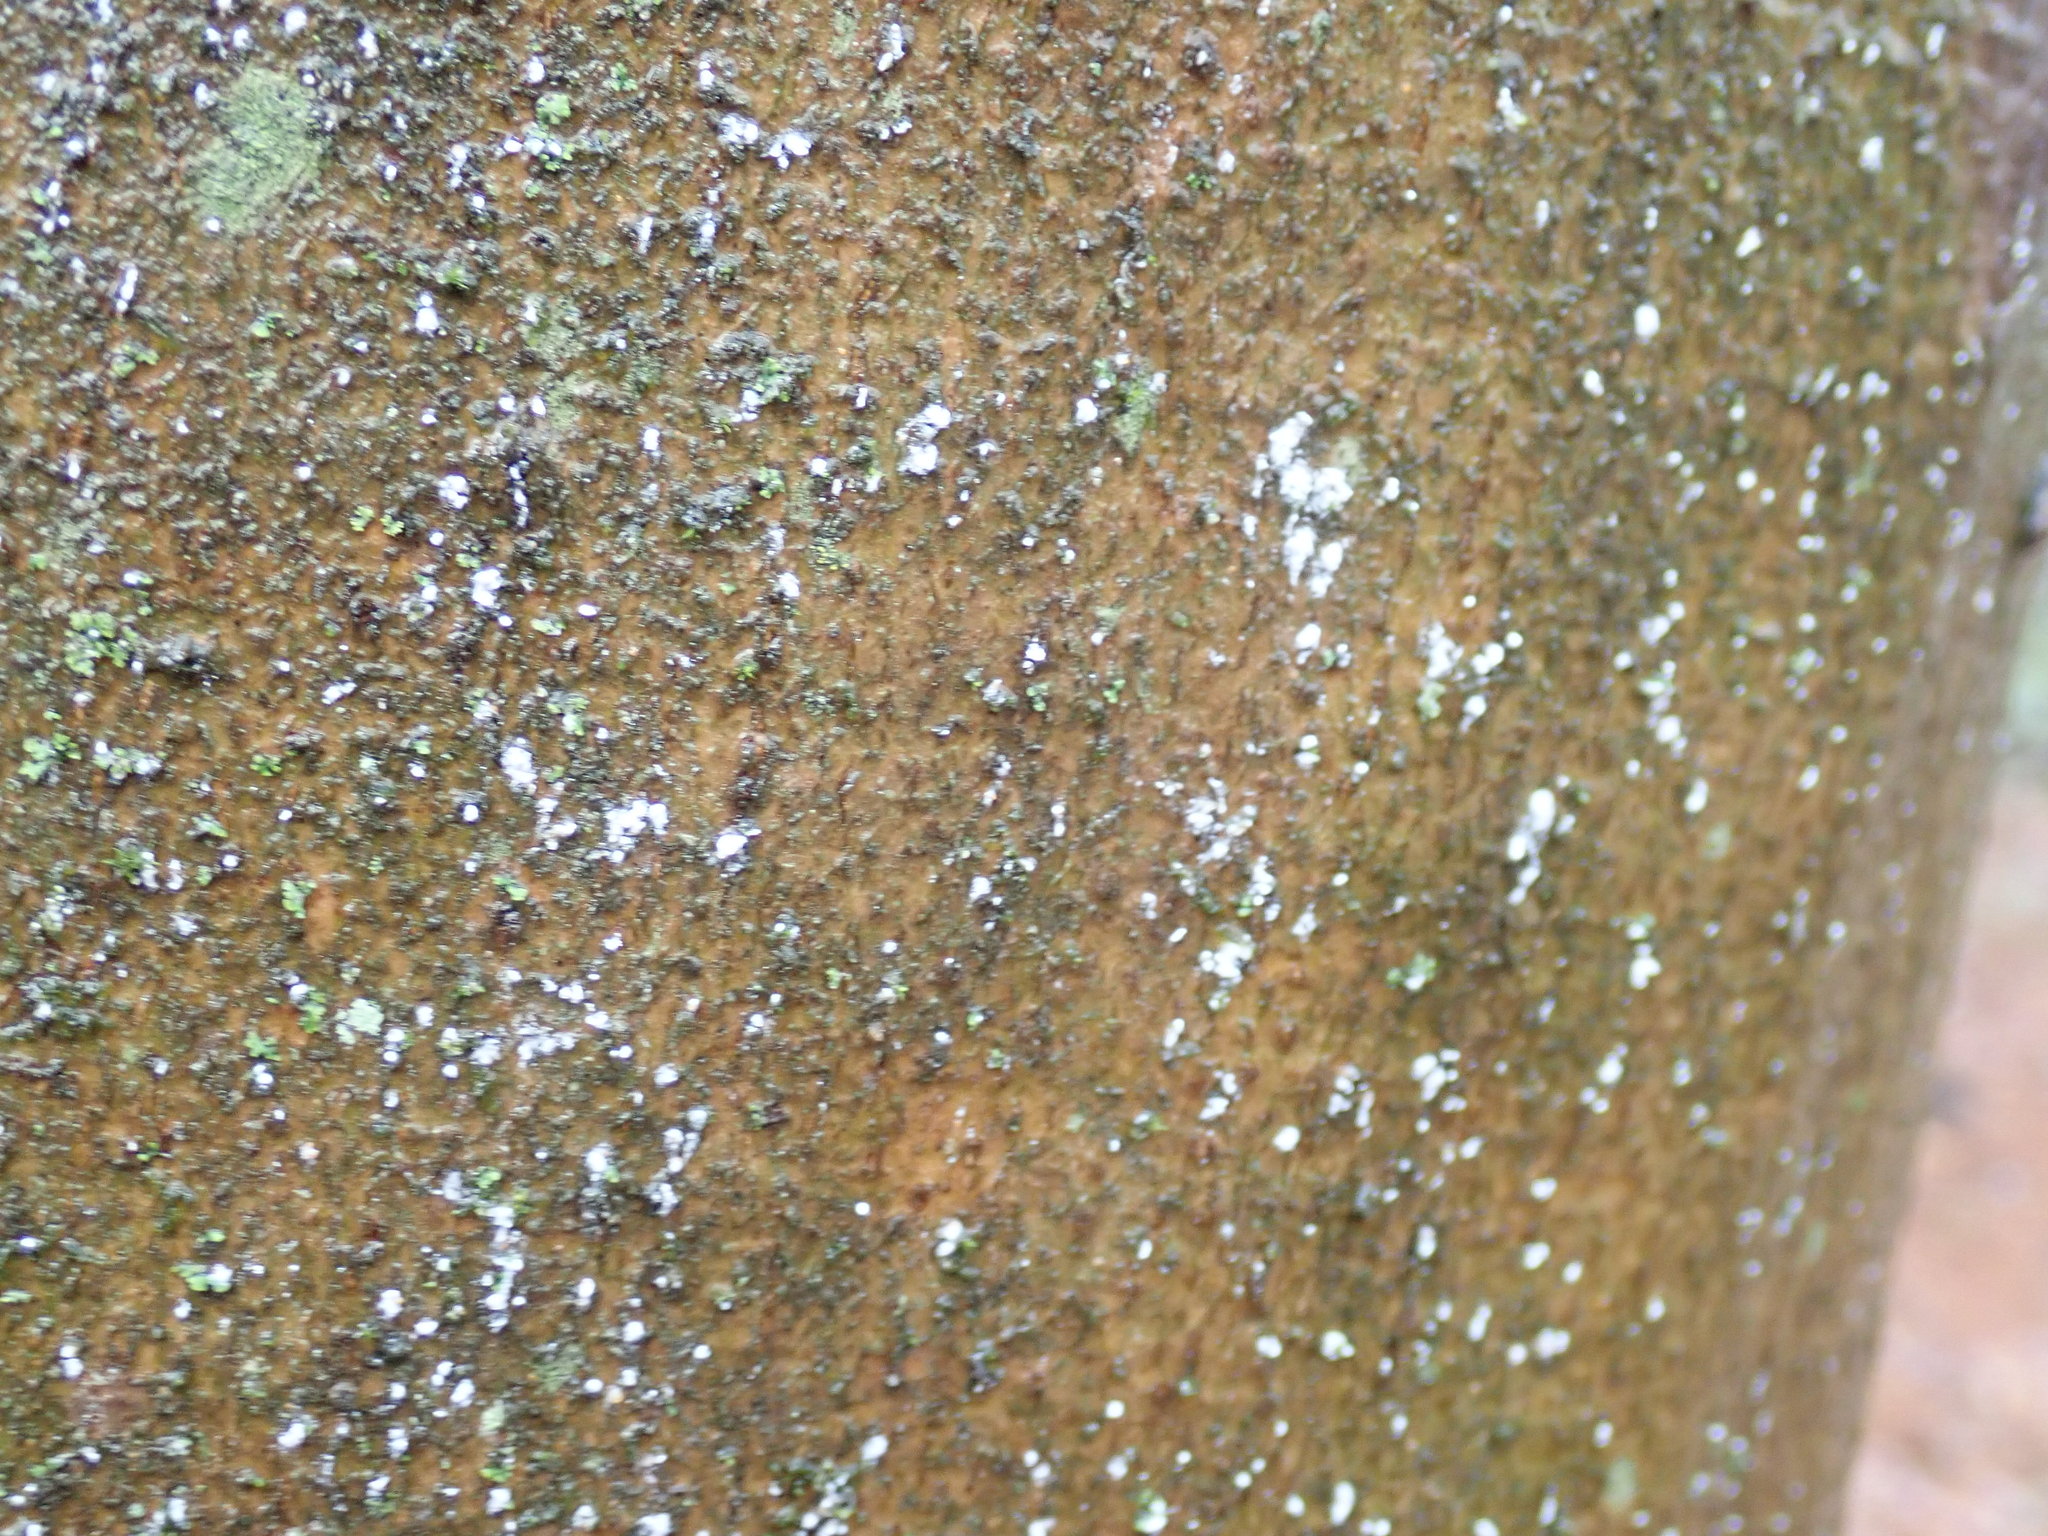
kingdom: Animalia
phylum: Arthropoda
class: Insecta
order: Hemiptera
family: Eriococcidae
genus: Cryptococcus
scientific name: Cryptococcus fagisuga
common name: Beech scale
